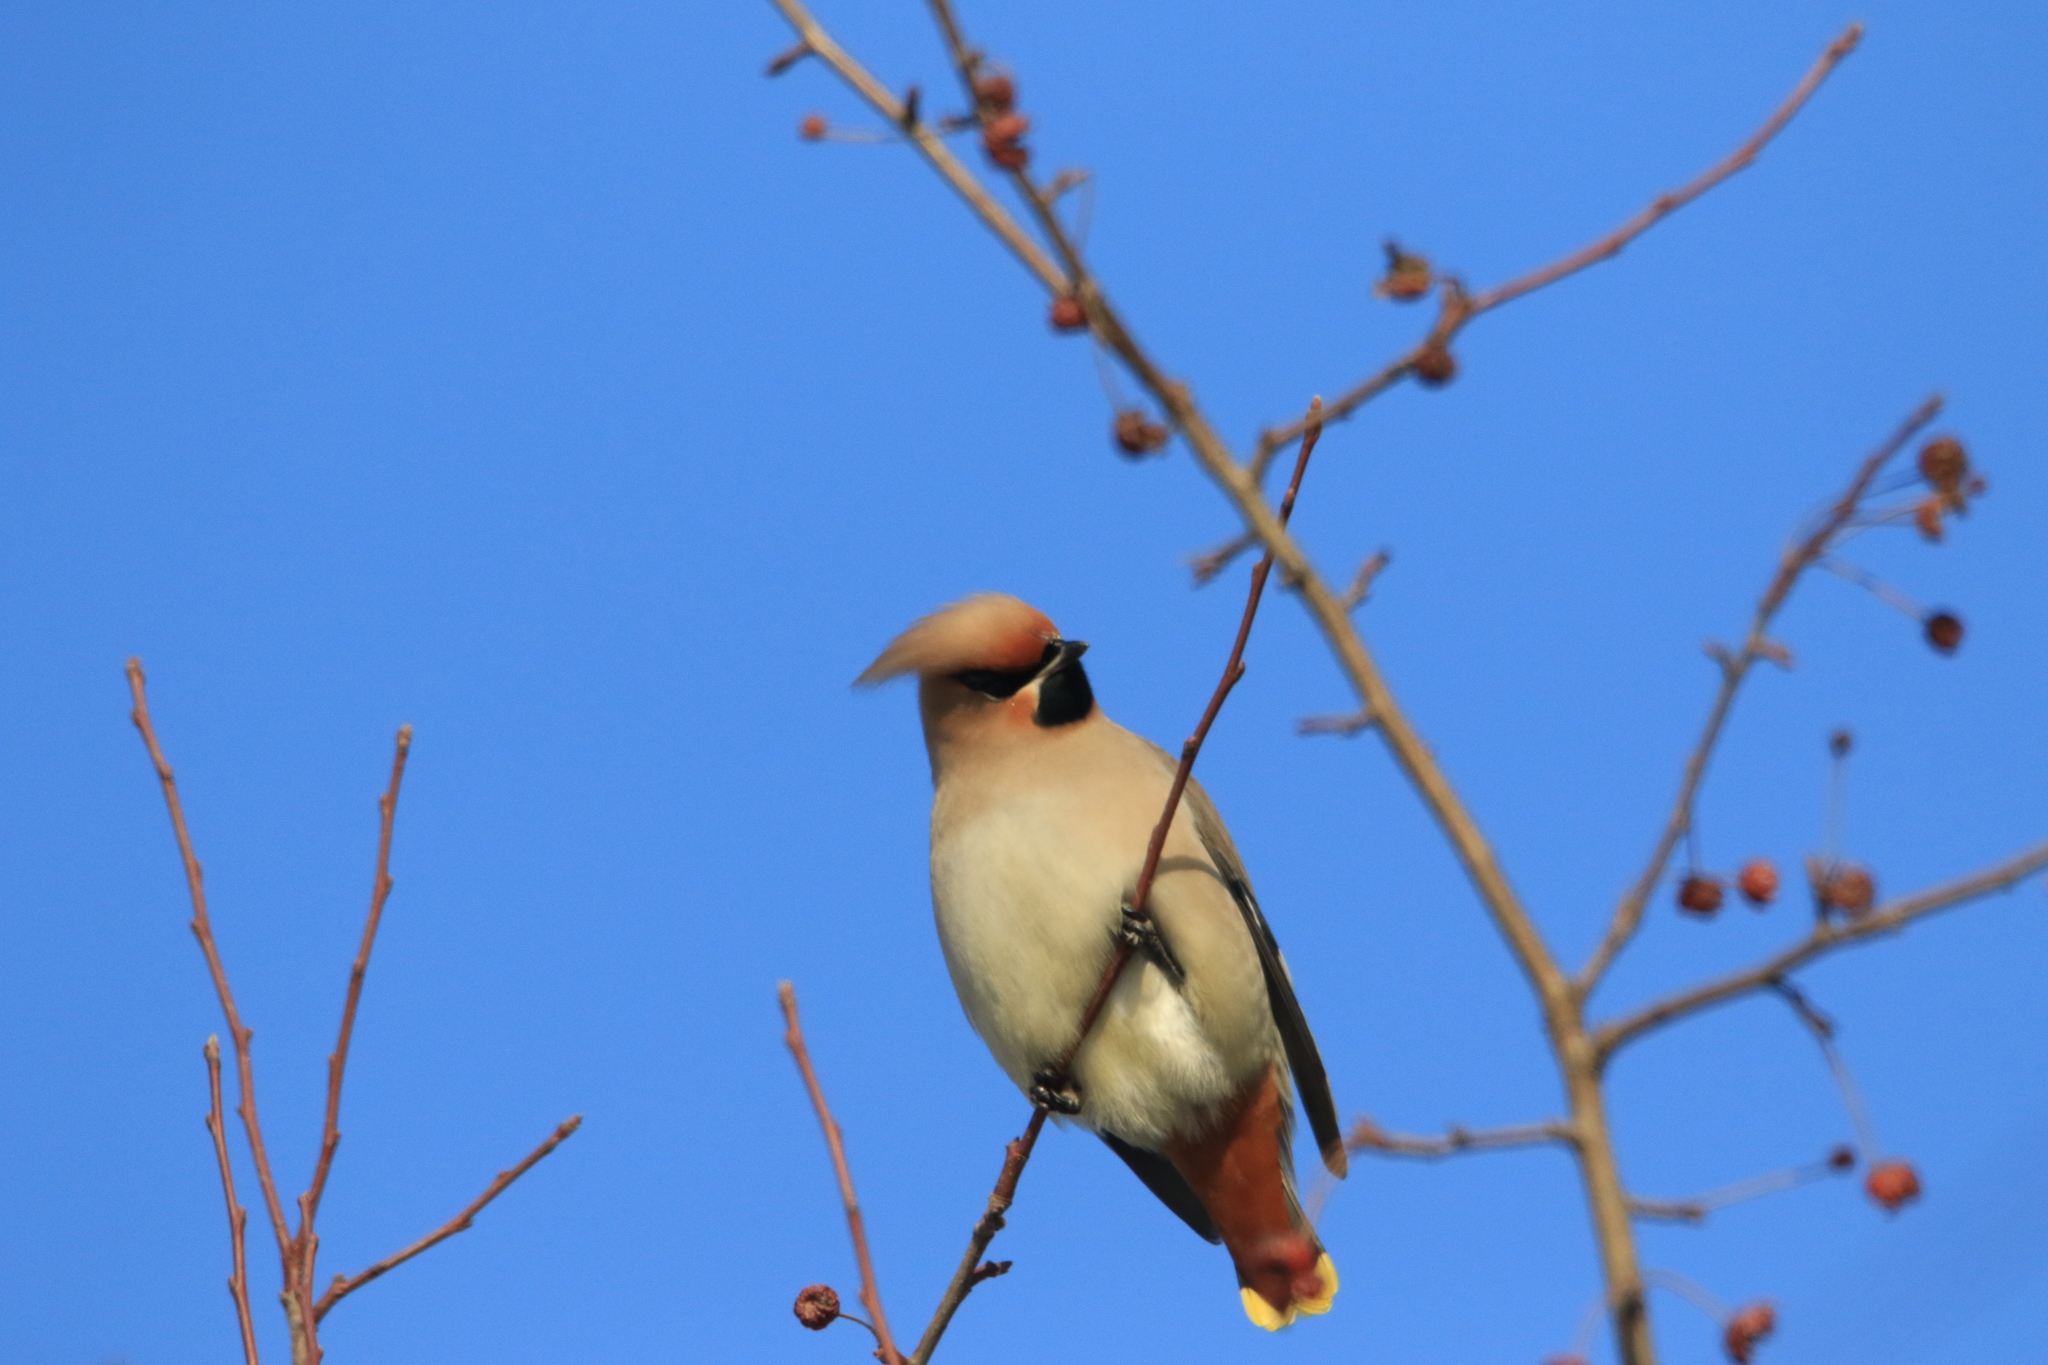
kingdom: Animalia
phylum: Chordata
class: Aves
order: Passeriformes
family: Bombycillidae
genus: Bombycilla
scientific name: Bombycilla garrulus
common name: Bohemian waxwing
